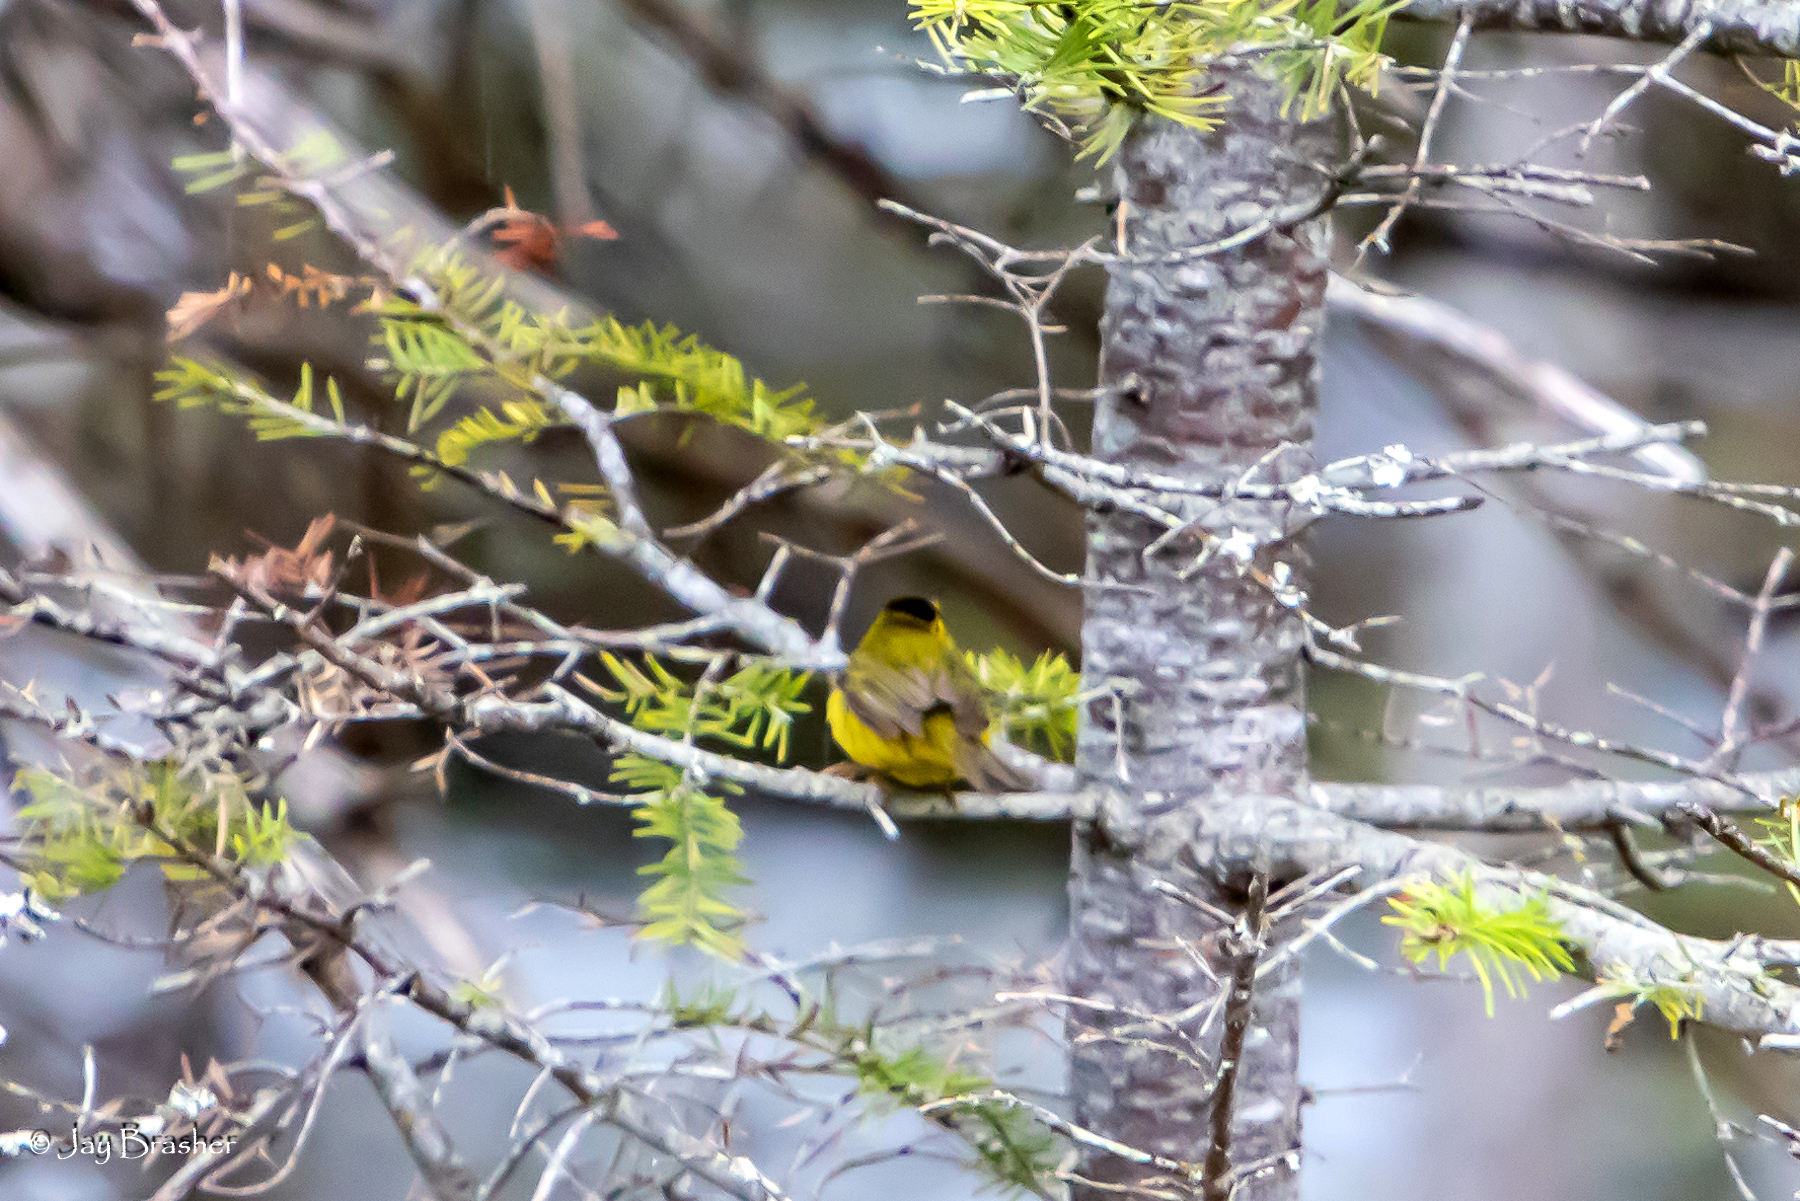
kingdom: Animalia
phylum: Chordata
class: Aves
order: Passeriformes
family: Parulidae
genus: Cardellina
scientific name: Cardellina pusilla
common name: Wilson's warbler
